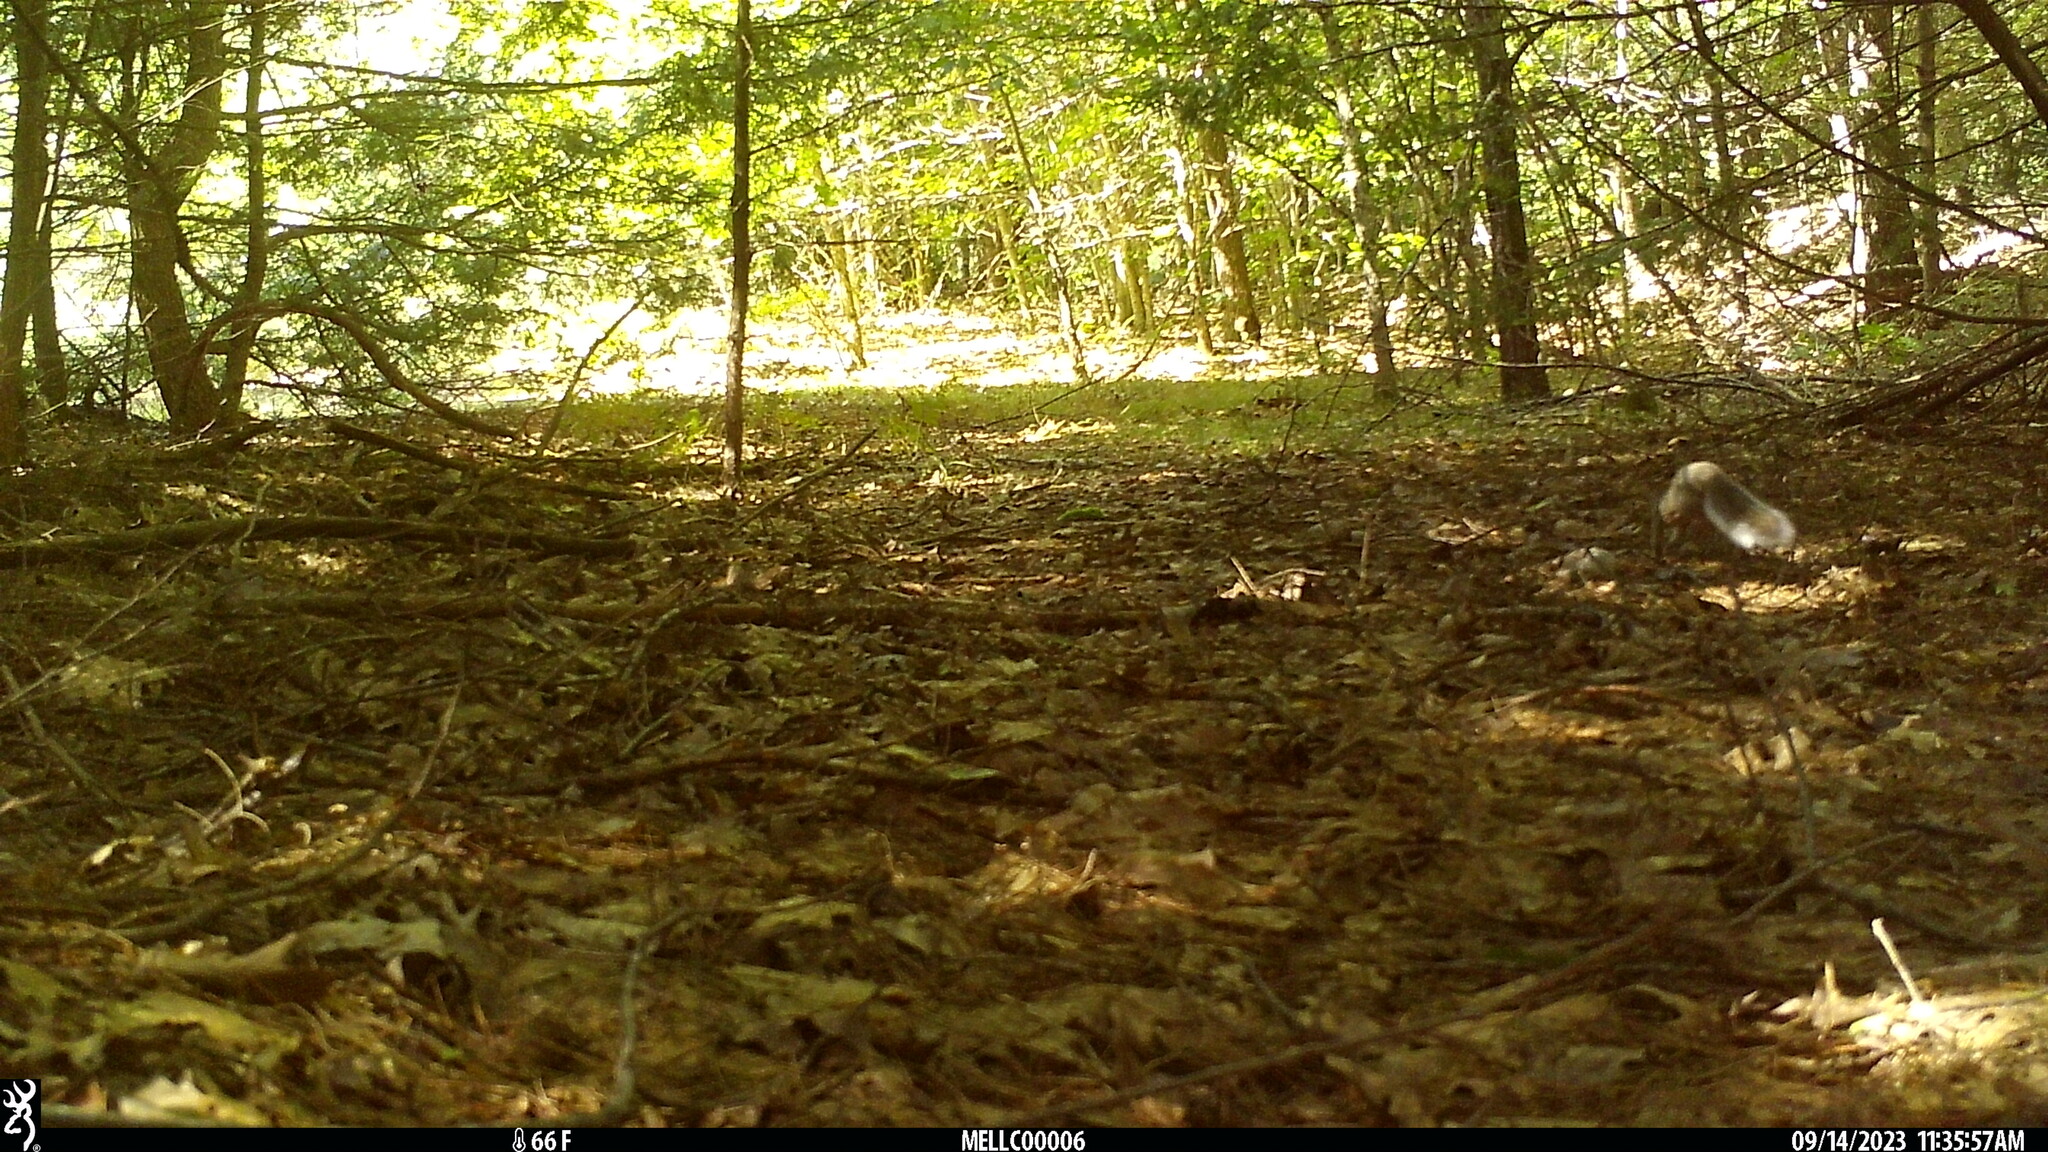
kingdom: Animalia
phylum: Chordata
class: Mammalia
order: Rodentia
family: Sciuridae
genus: Sciurus
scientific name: Sciurus carolinensis
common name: Eastern gray squirrel
